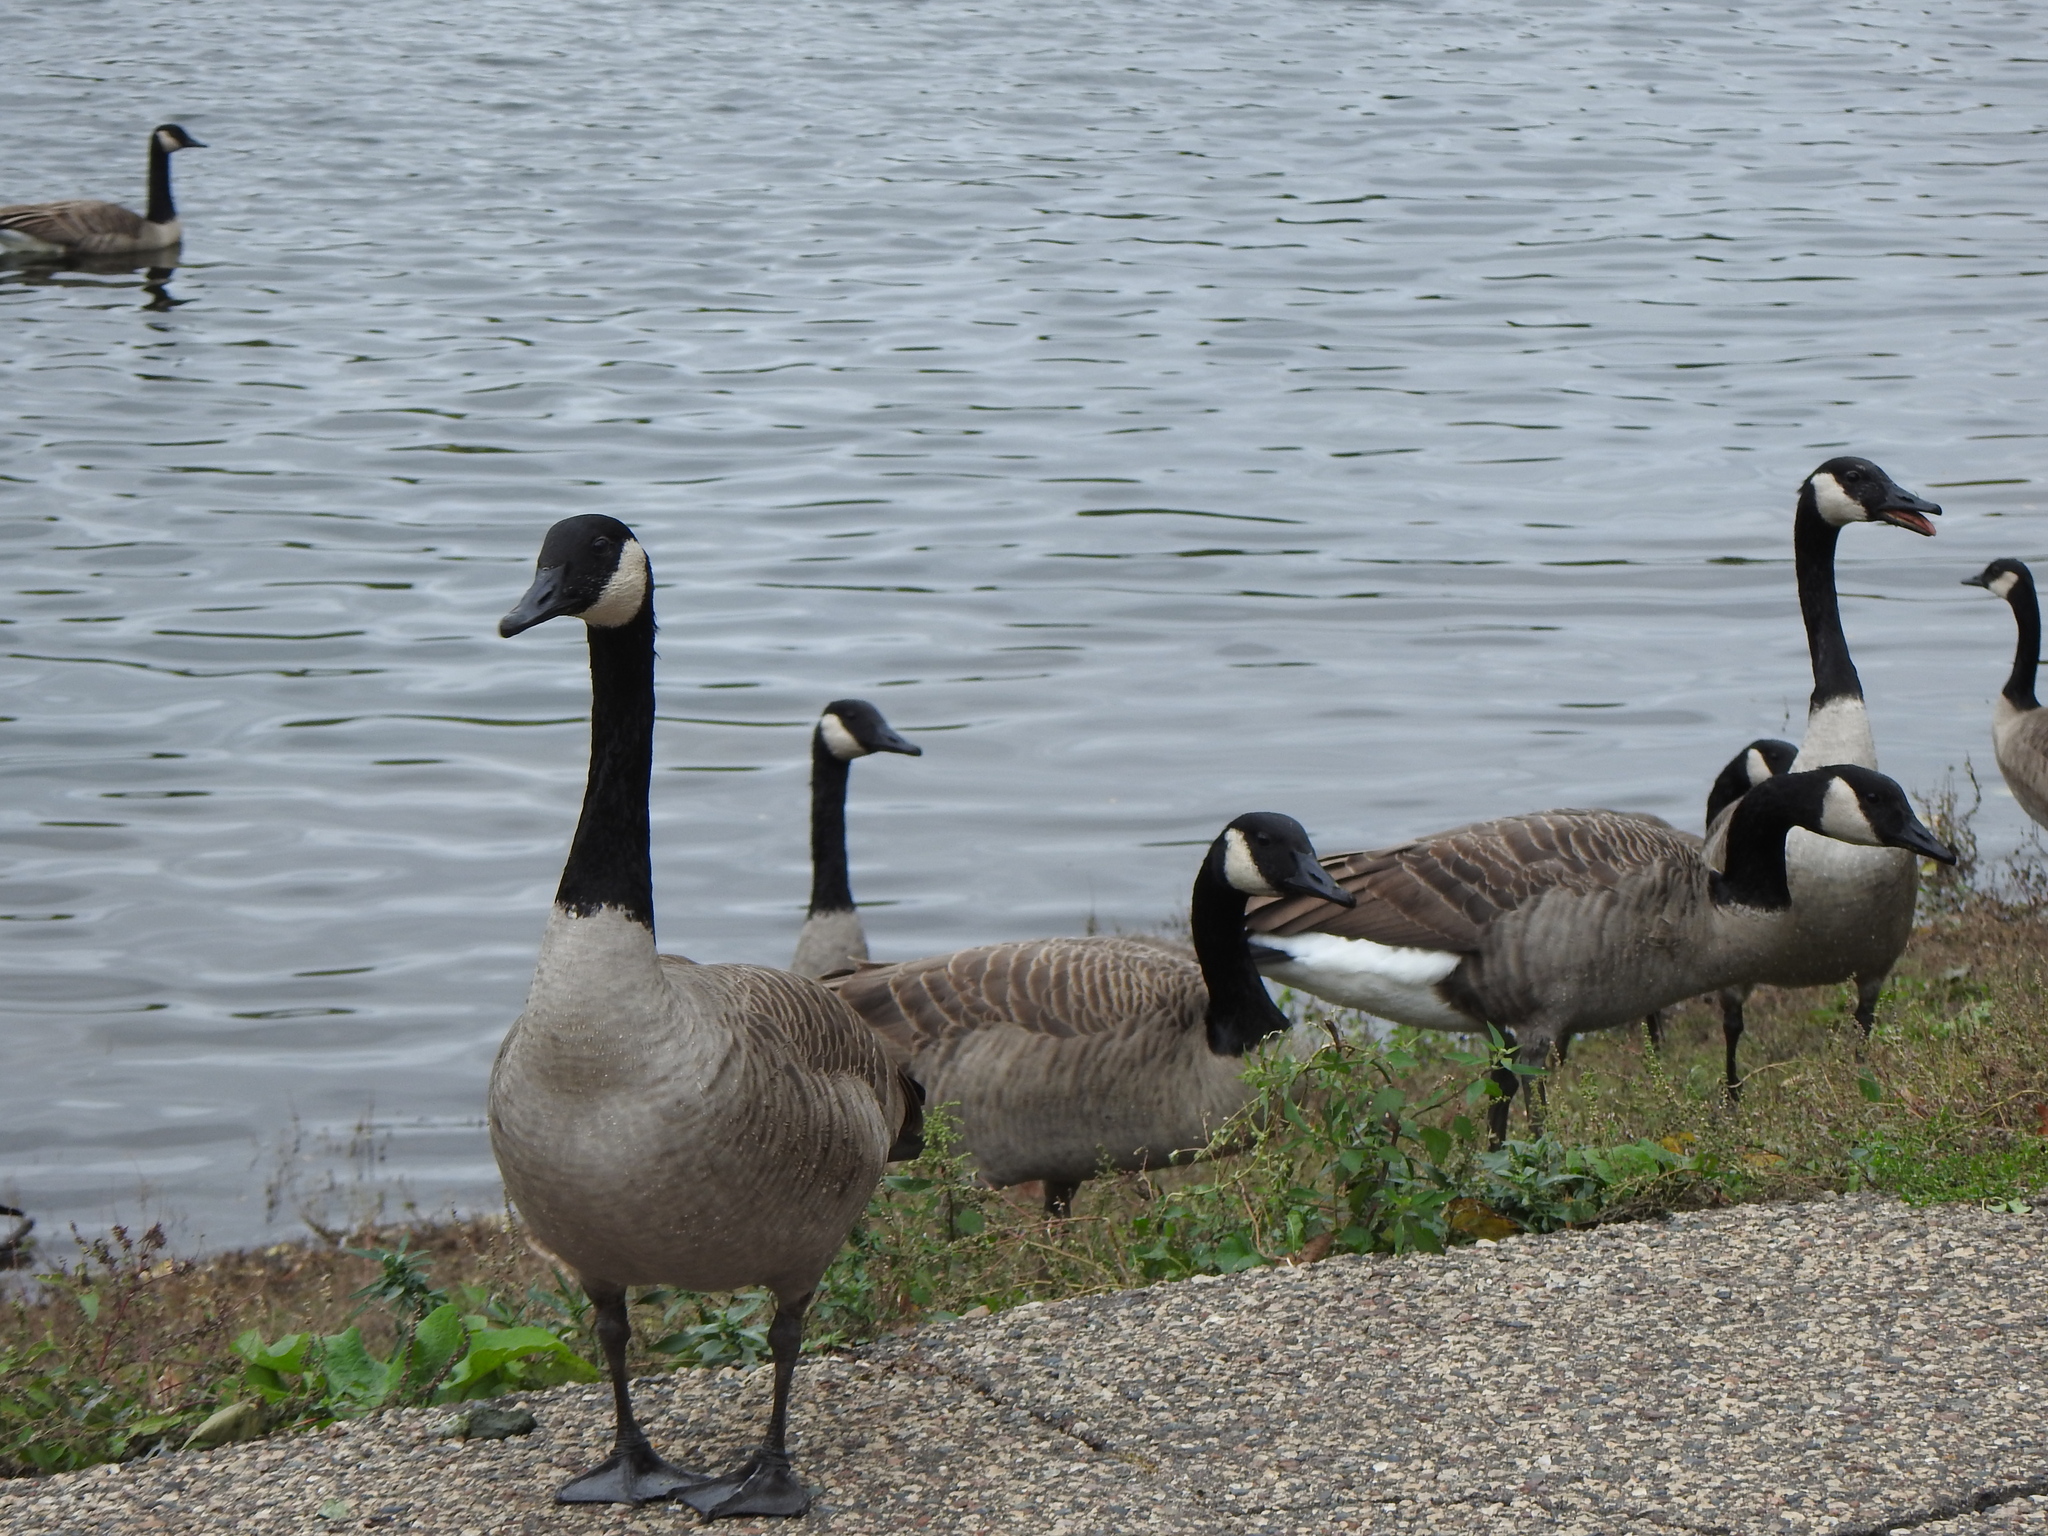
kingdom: Animalia
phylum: Chordata
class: Aves
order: Anseriformes
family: Anatidae
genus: Branta
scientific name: Branta canadensis
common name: Canada goose
